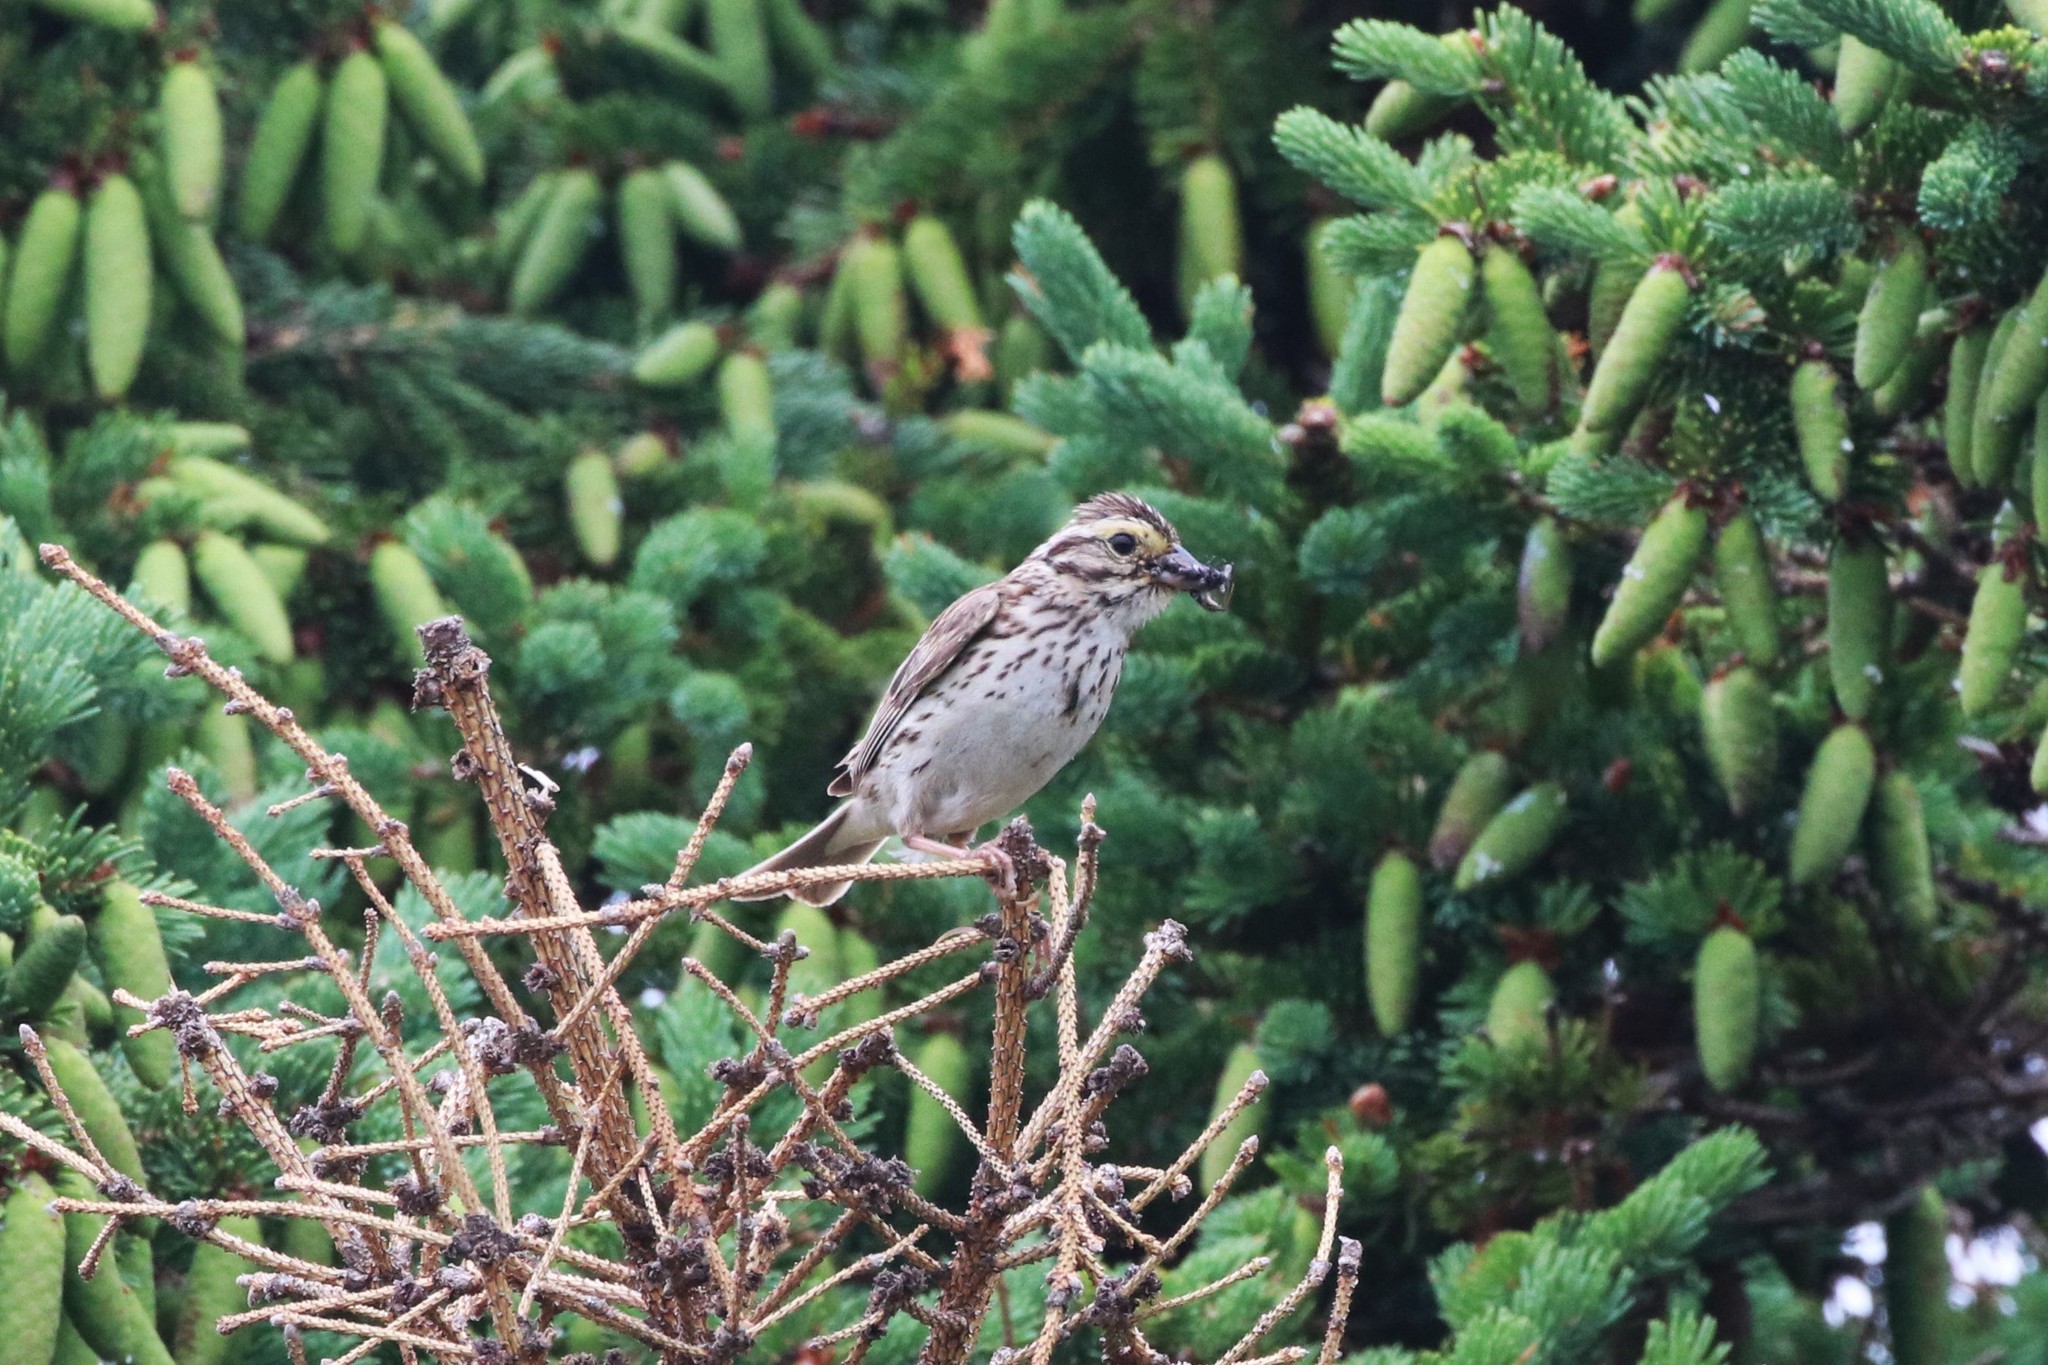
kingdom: Animalia
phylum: Chordata
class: Aves
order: Passeriformes
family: Passerellidae
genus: Passerculus
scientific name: Passerculus sandwichensis
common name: Savannah sparrow
